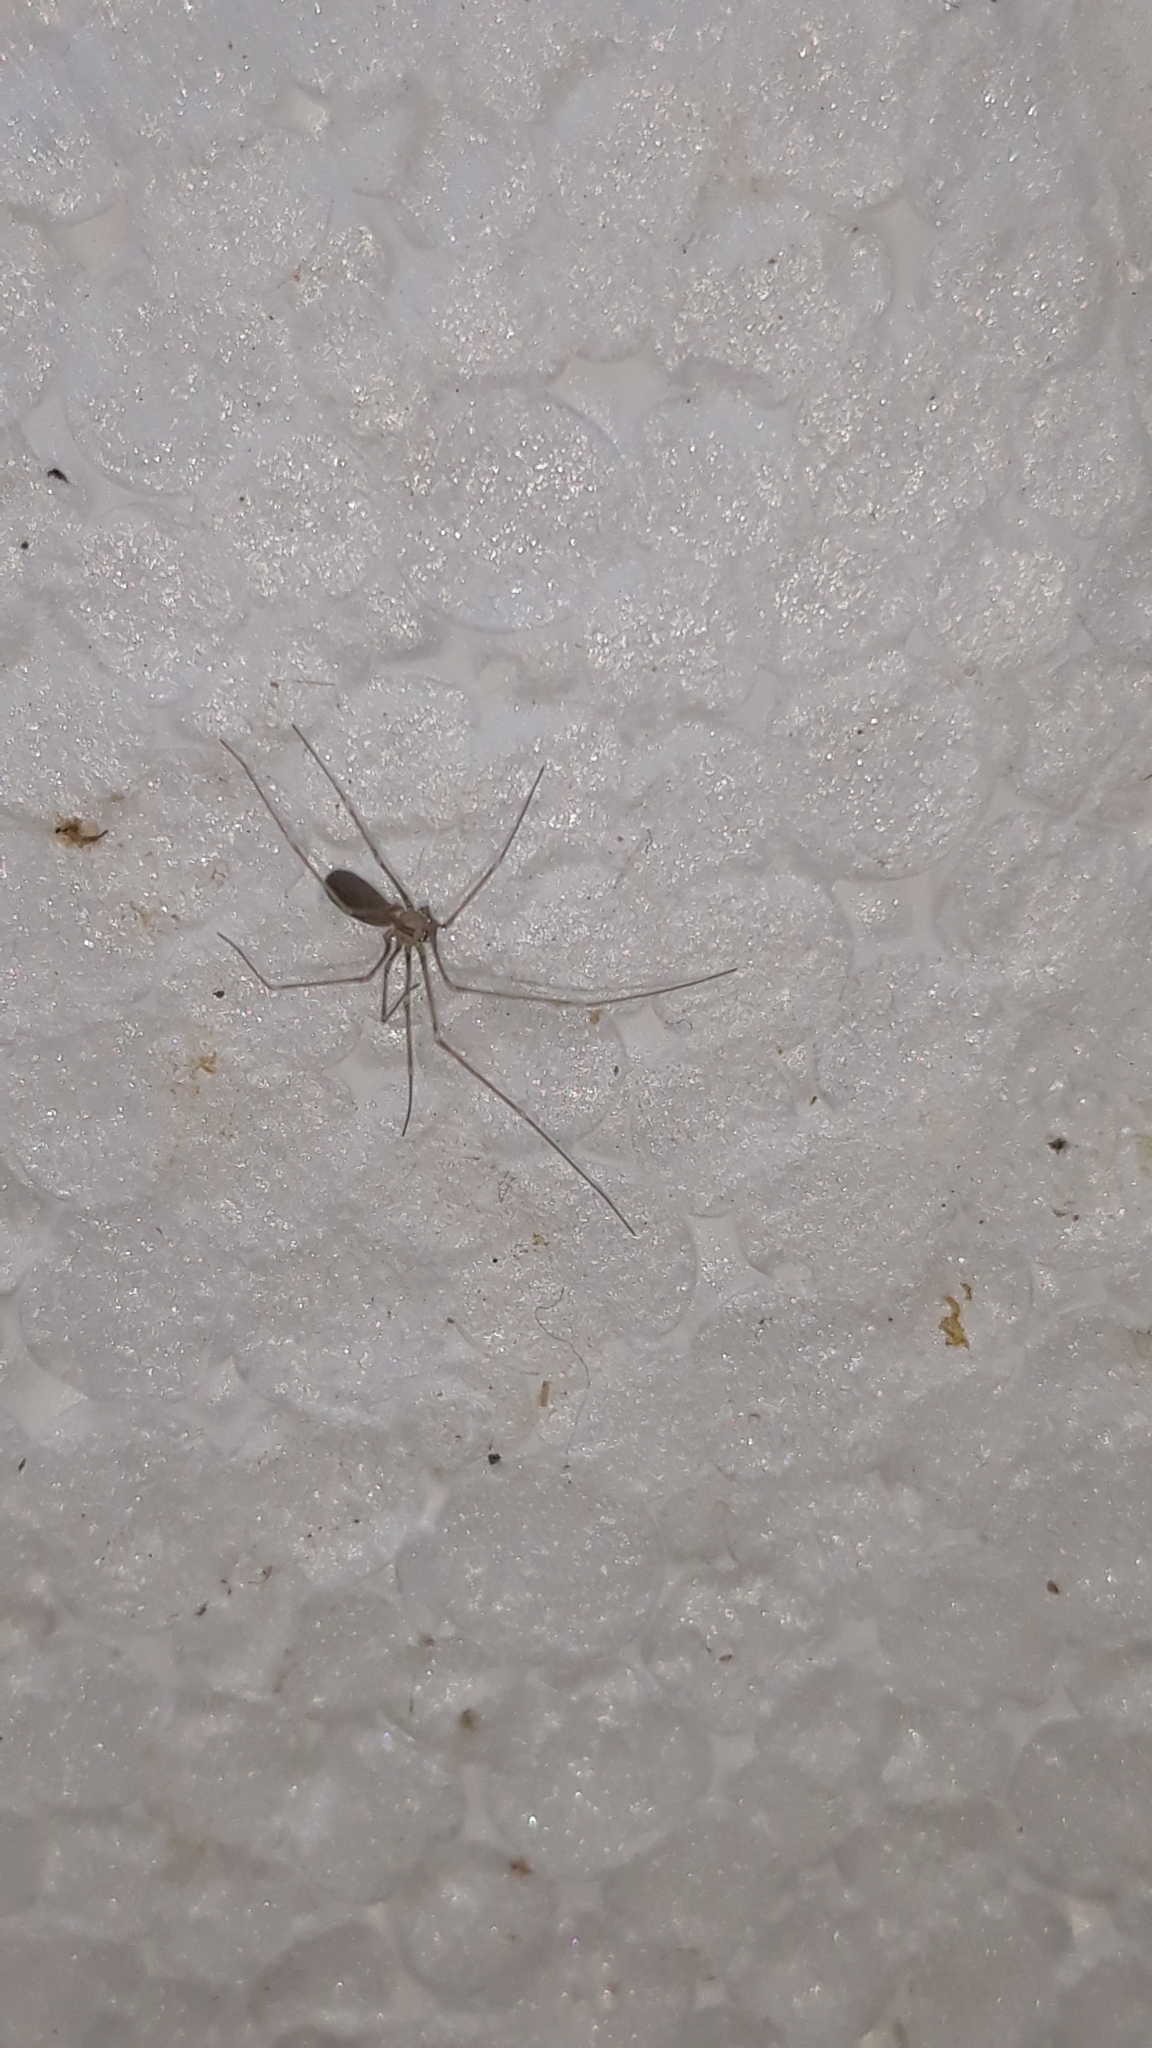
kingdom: Animalia
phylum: Arthropoda
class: Arachnida
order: Araneae
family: Pholcidae
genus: Pholcus
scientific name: Pholcus opilionoides
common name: Daddylongleg spider
